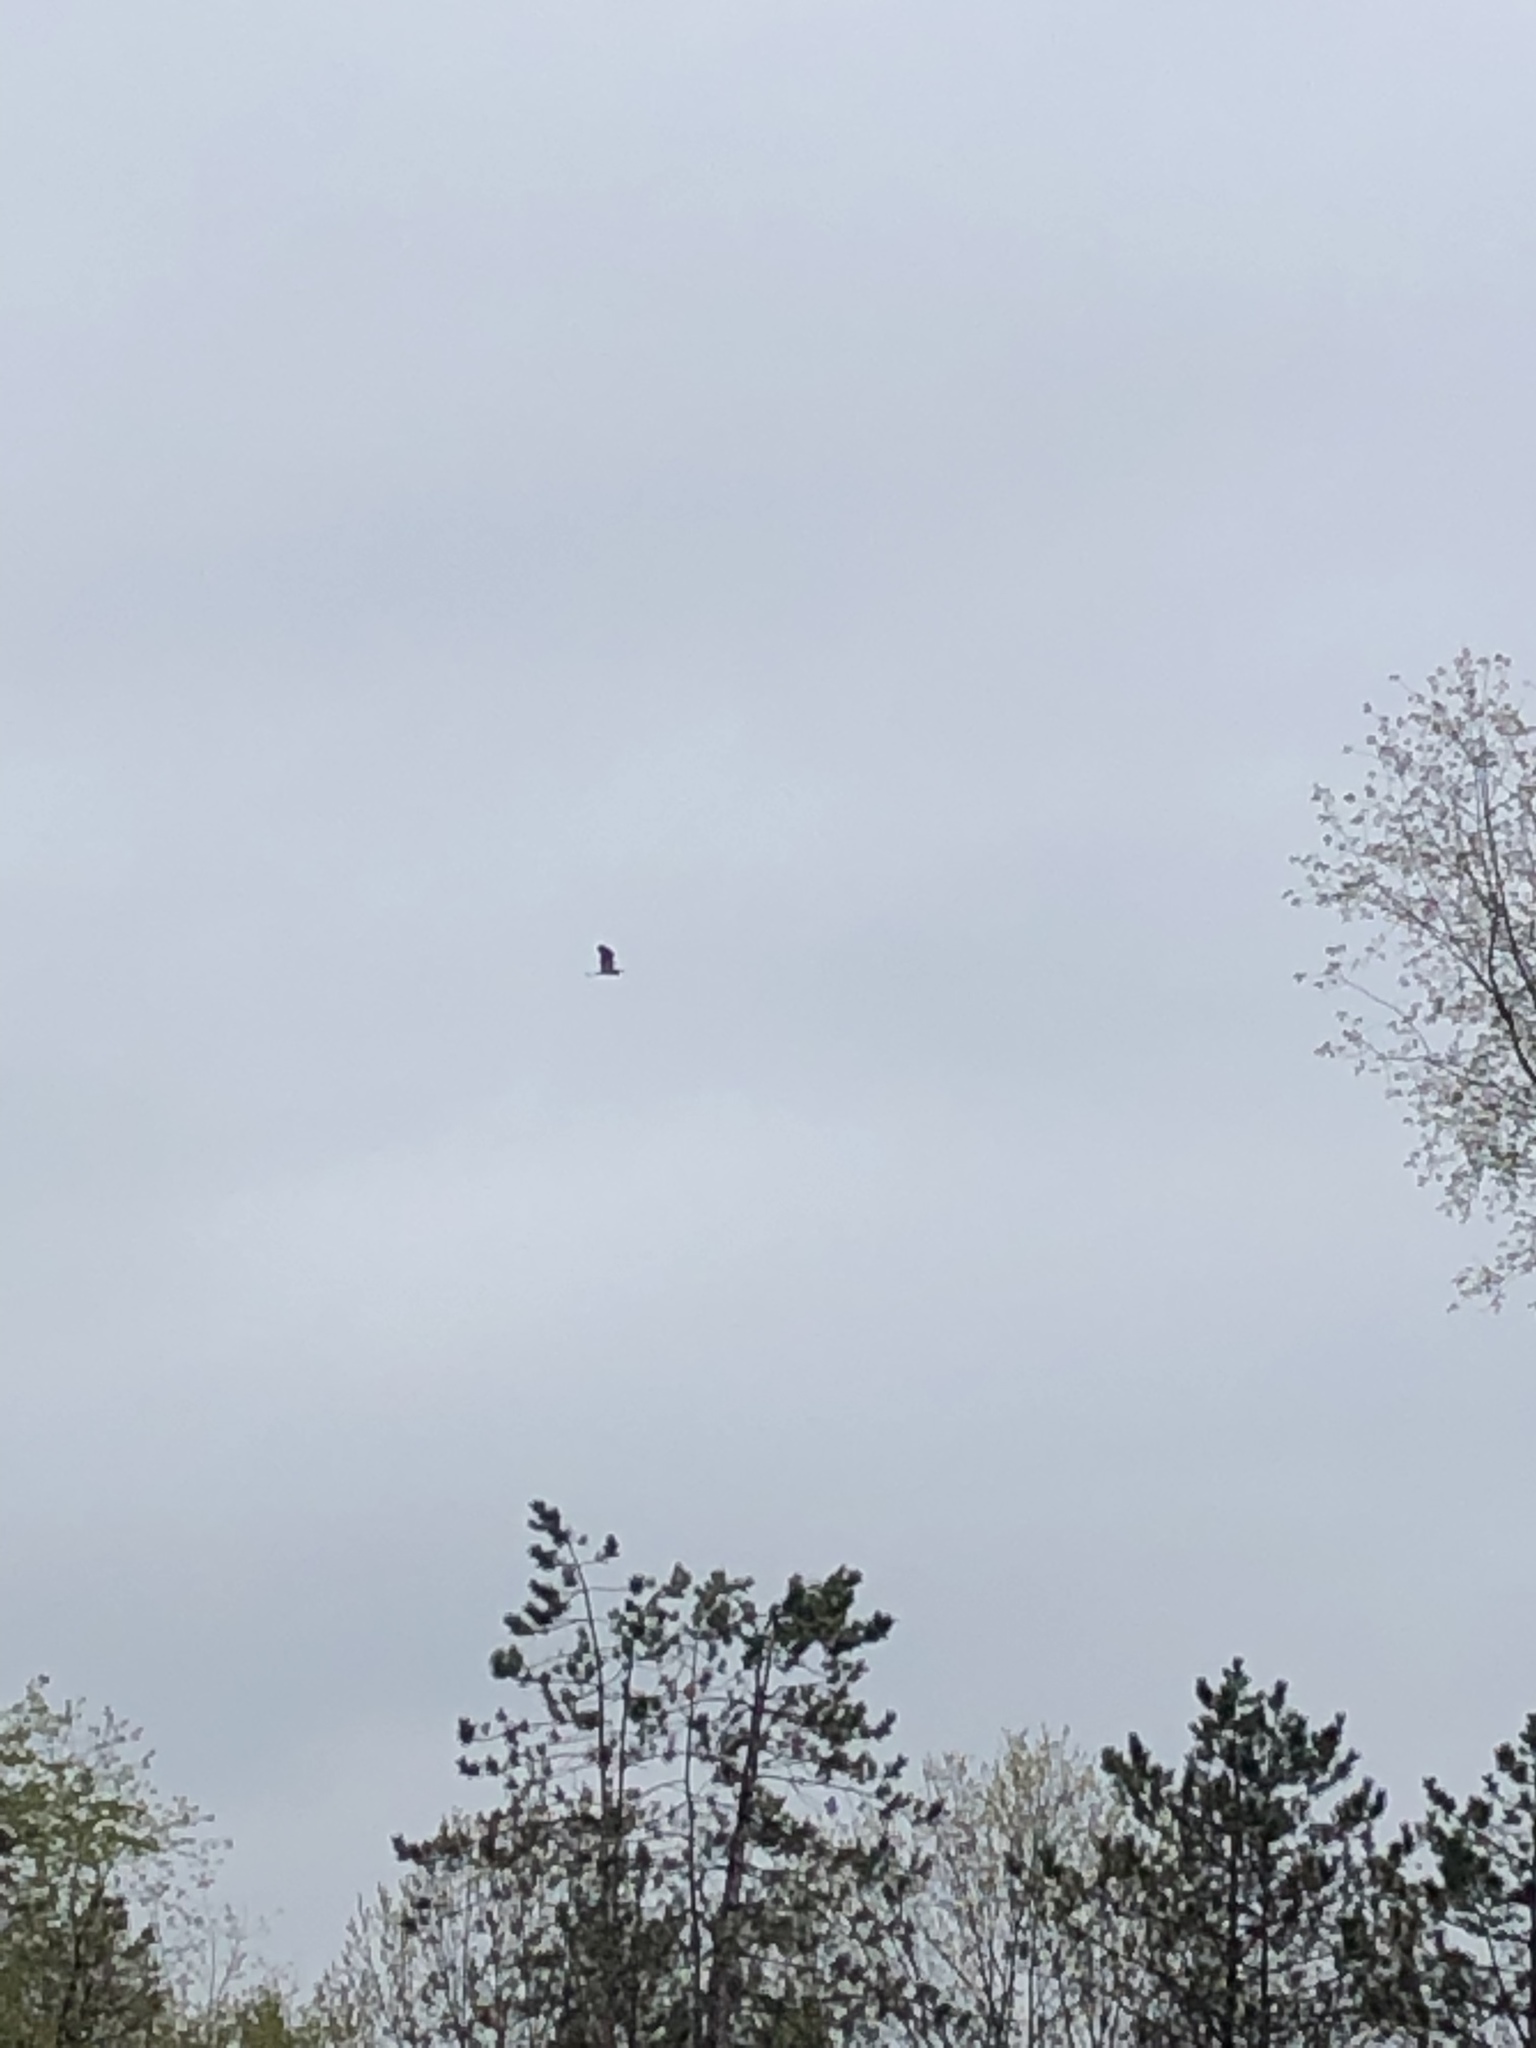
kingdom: Animalia
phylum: Chordata
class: Aves
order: Pelecaniformes
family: Ardeidae
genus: Ardea
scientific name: Ardea herodias
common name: Great blue heron
